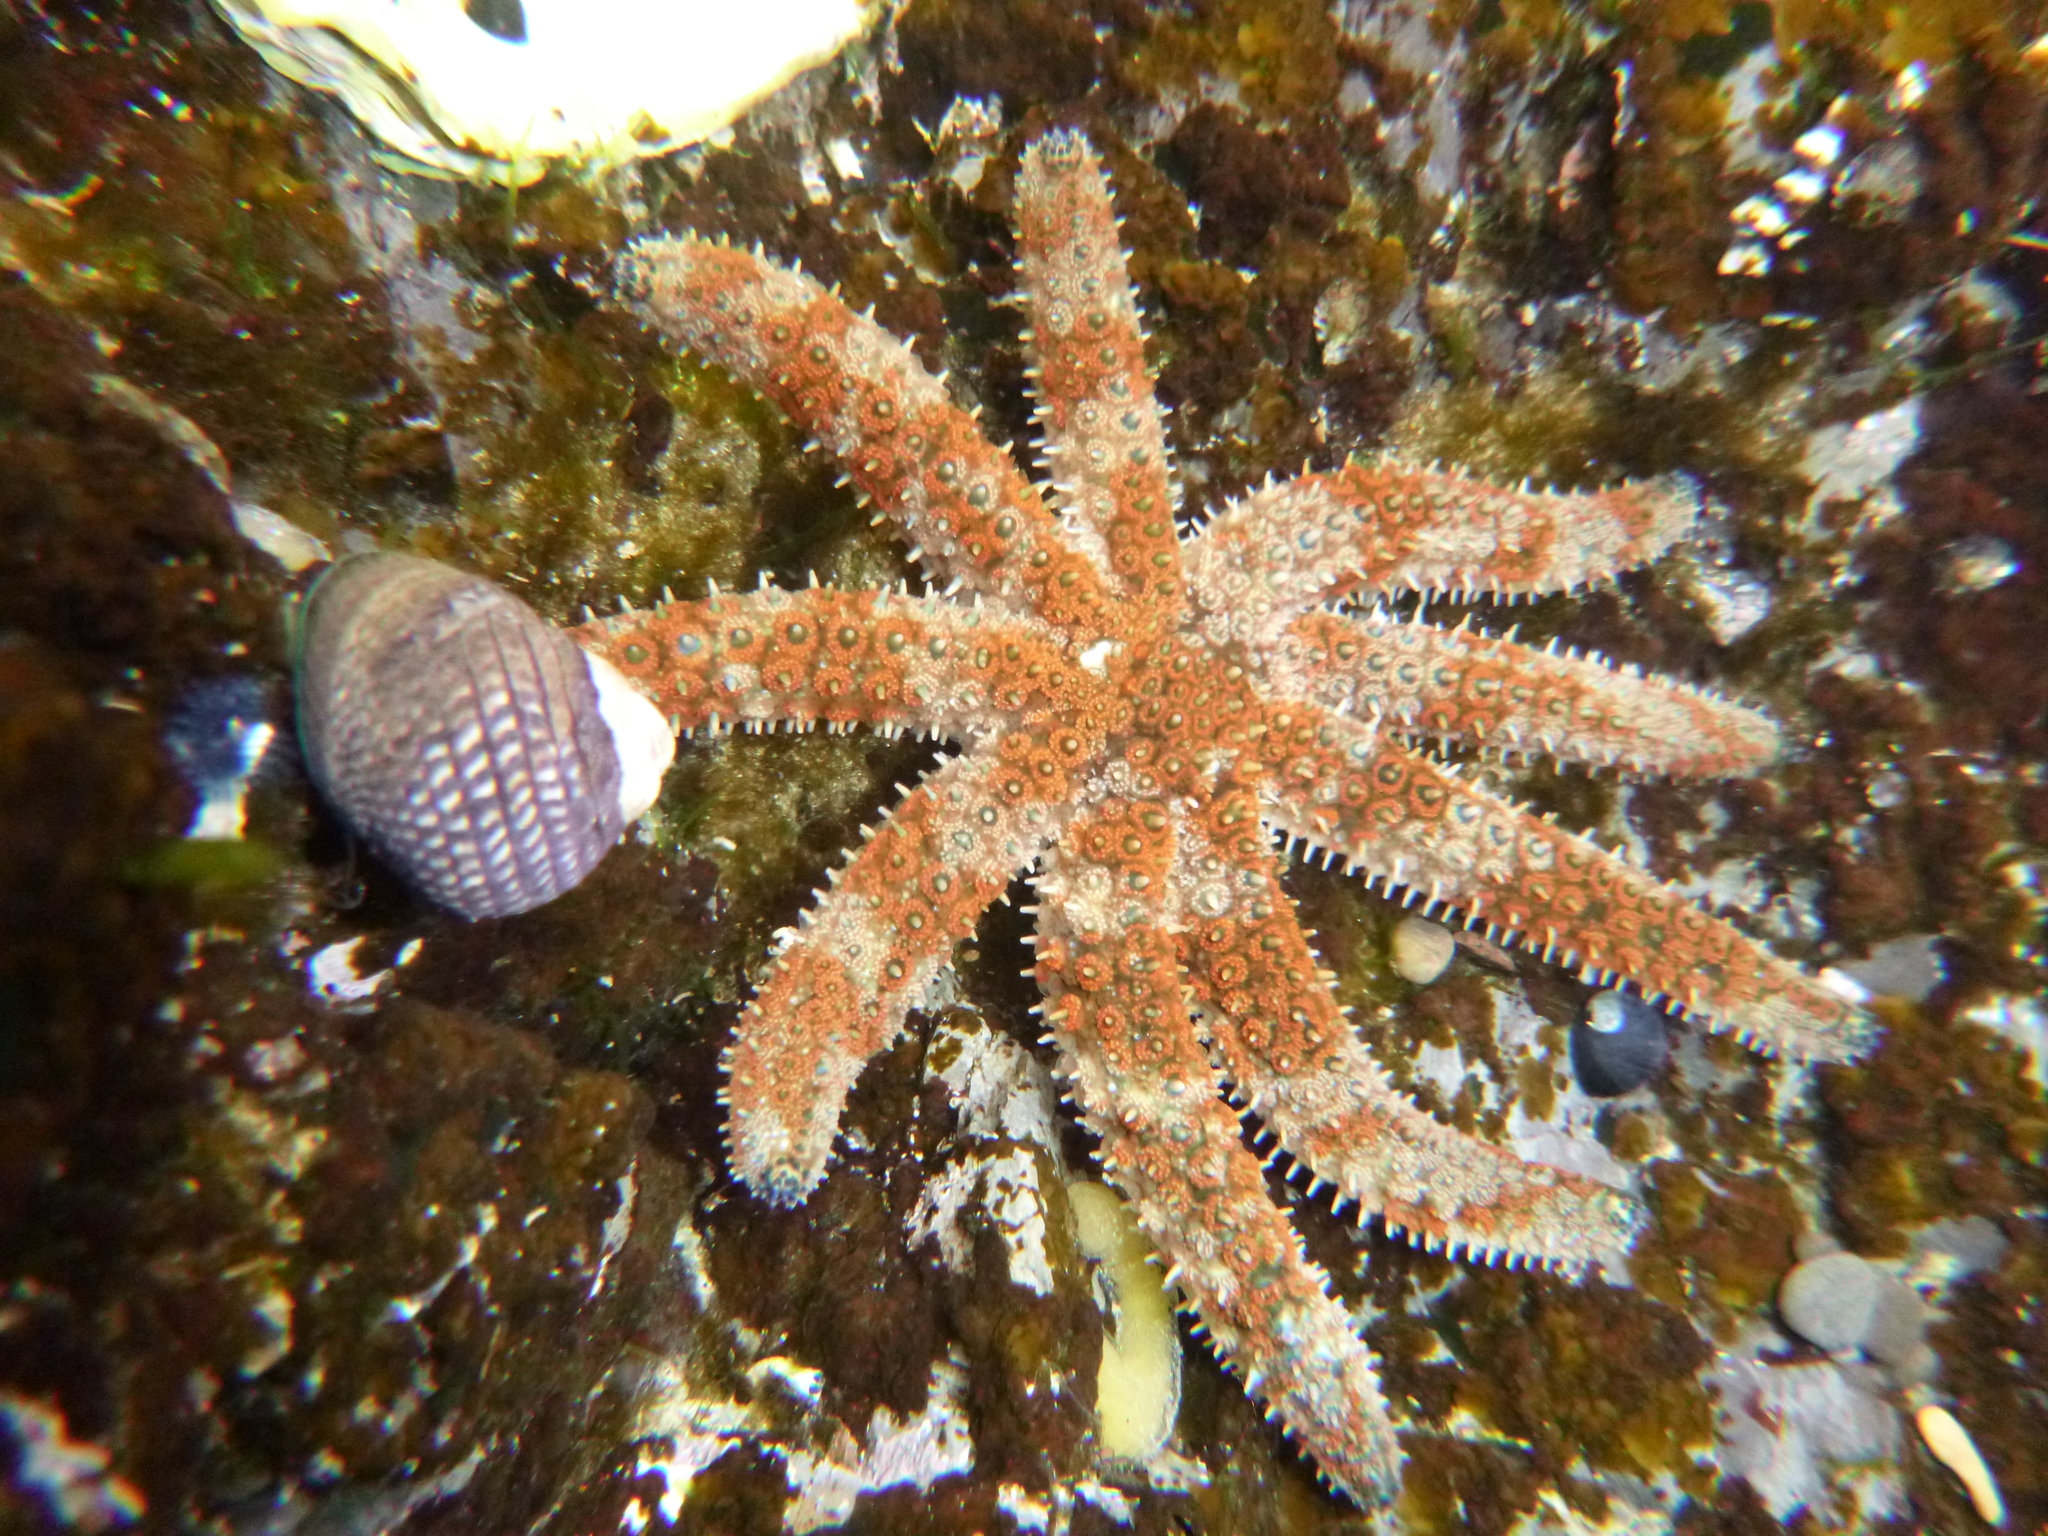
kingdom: Animalia
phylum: Echinodermata
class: Asteroidea
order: Forcipulatida
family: Asteriidae
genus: Coscinasterias
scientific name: Coscinasterias muricata
